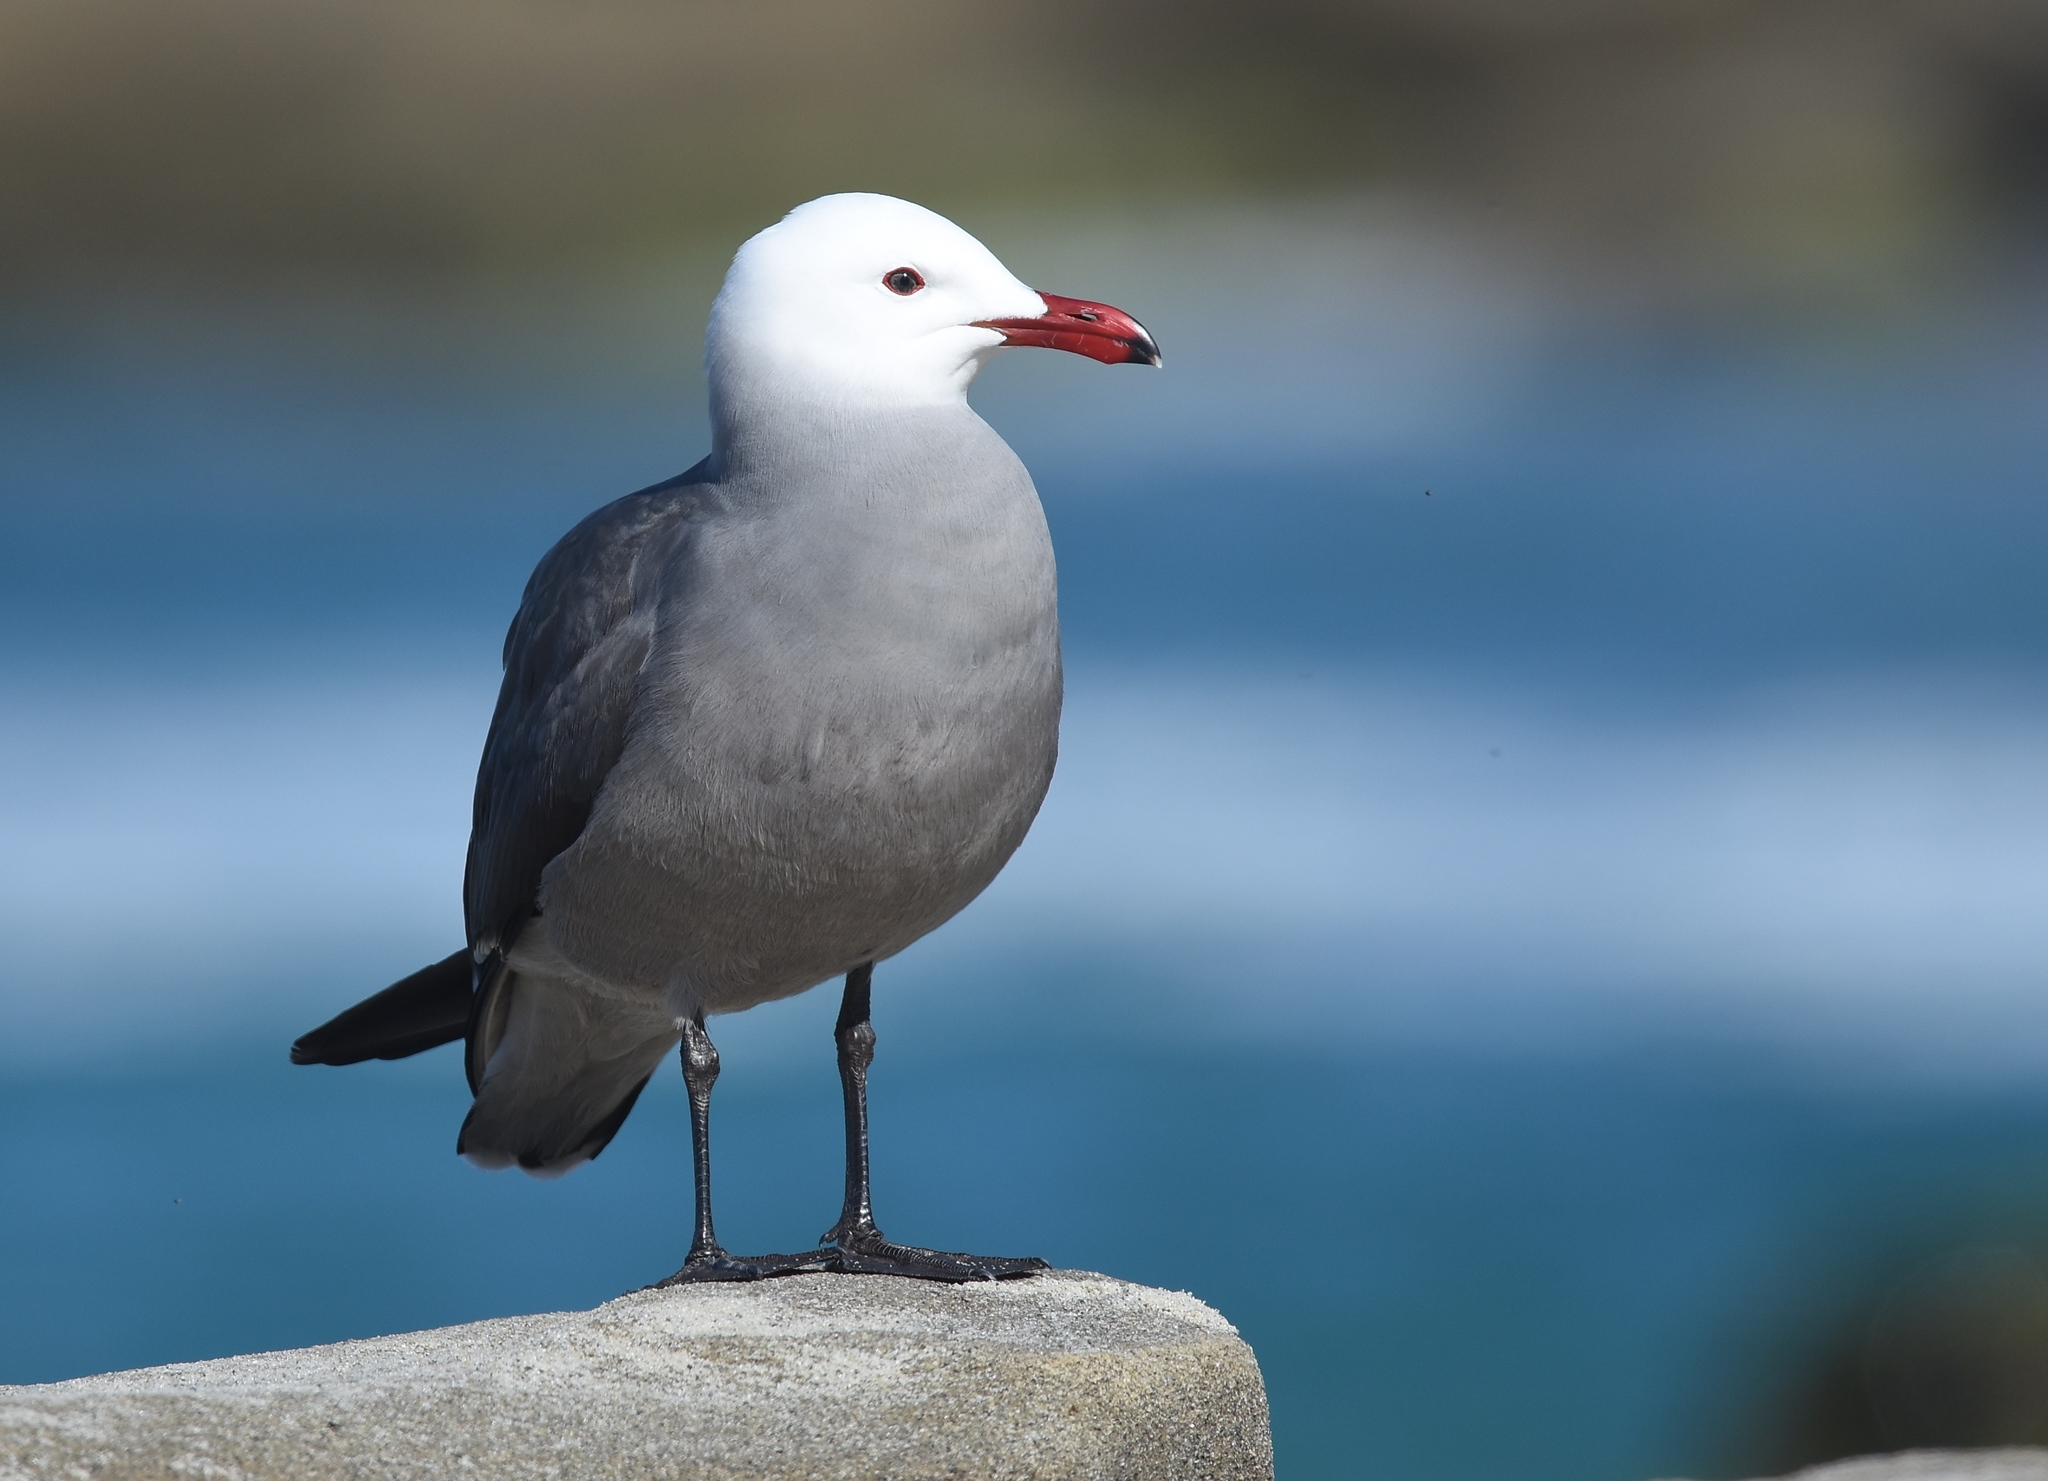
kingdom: Animalia
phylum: Chordata
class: Aves
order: Charadriiformes
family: Laridae
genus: Larus
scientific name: Larus heermanni
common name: Heermann's gull
